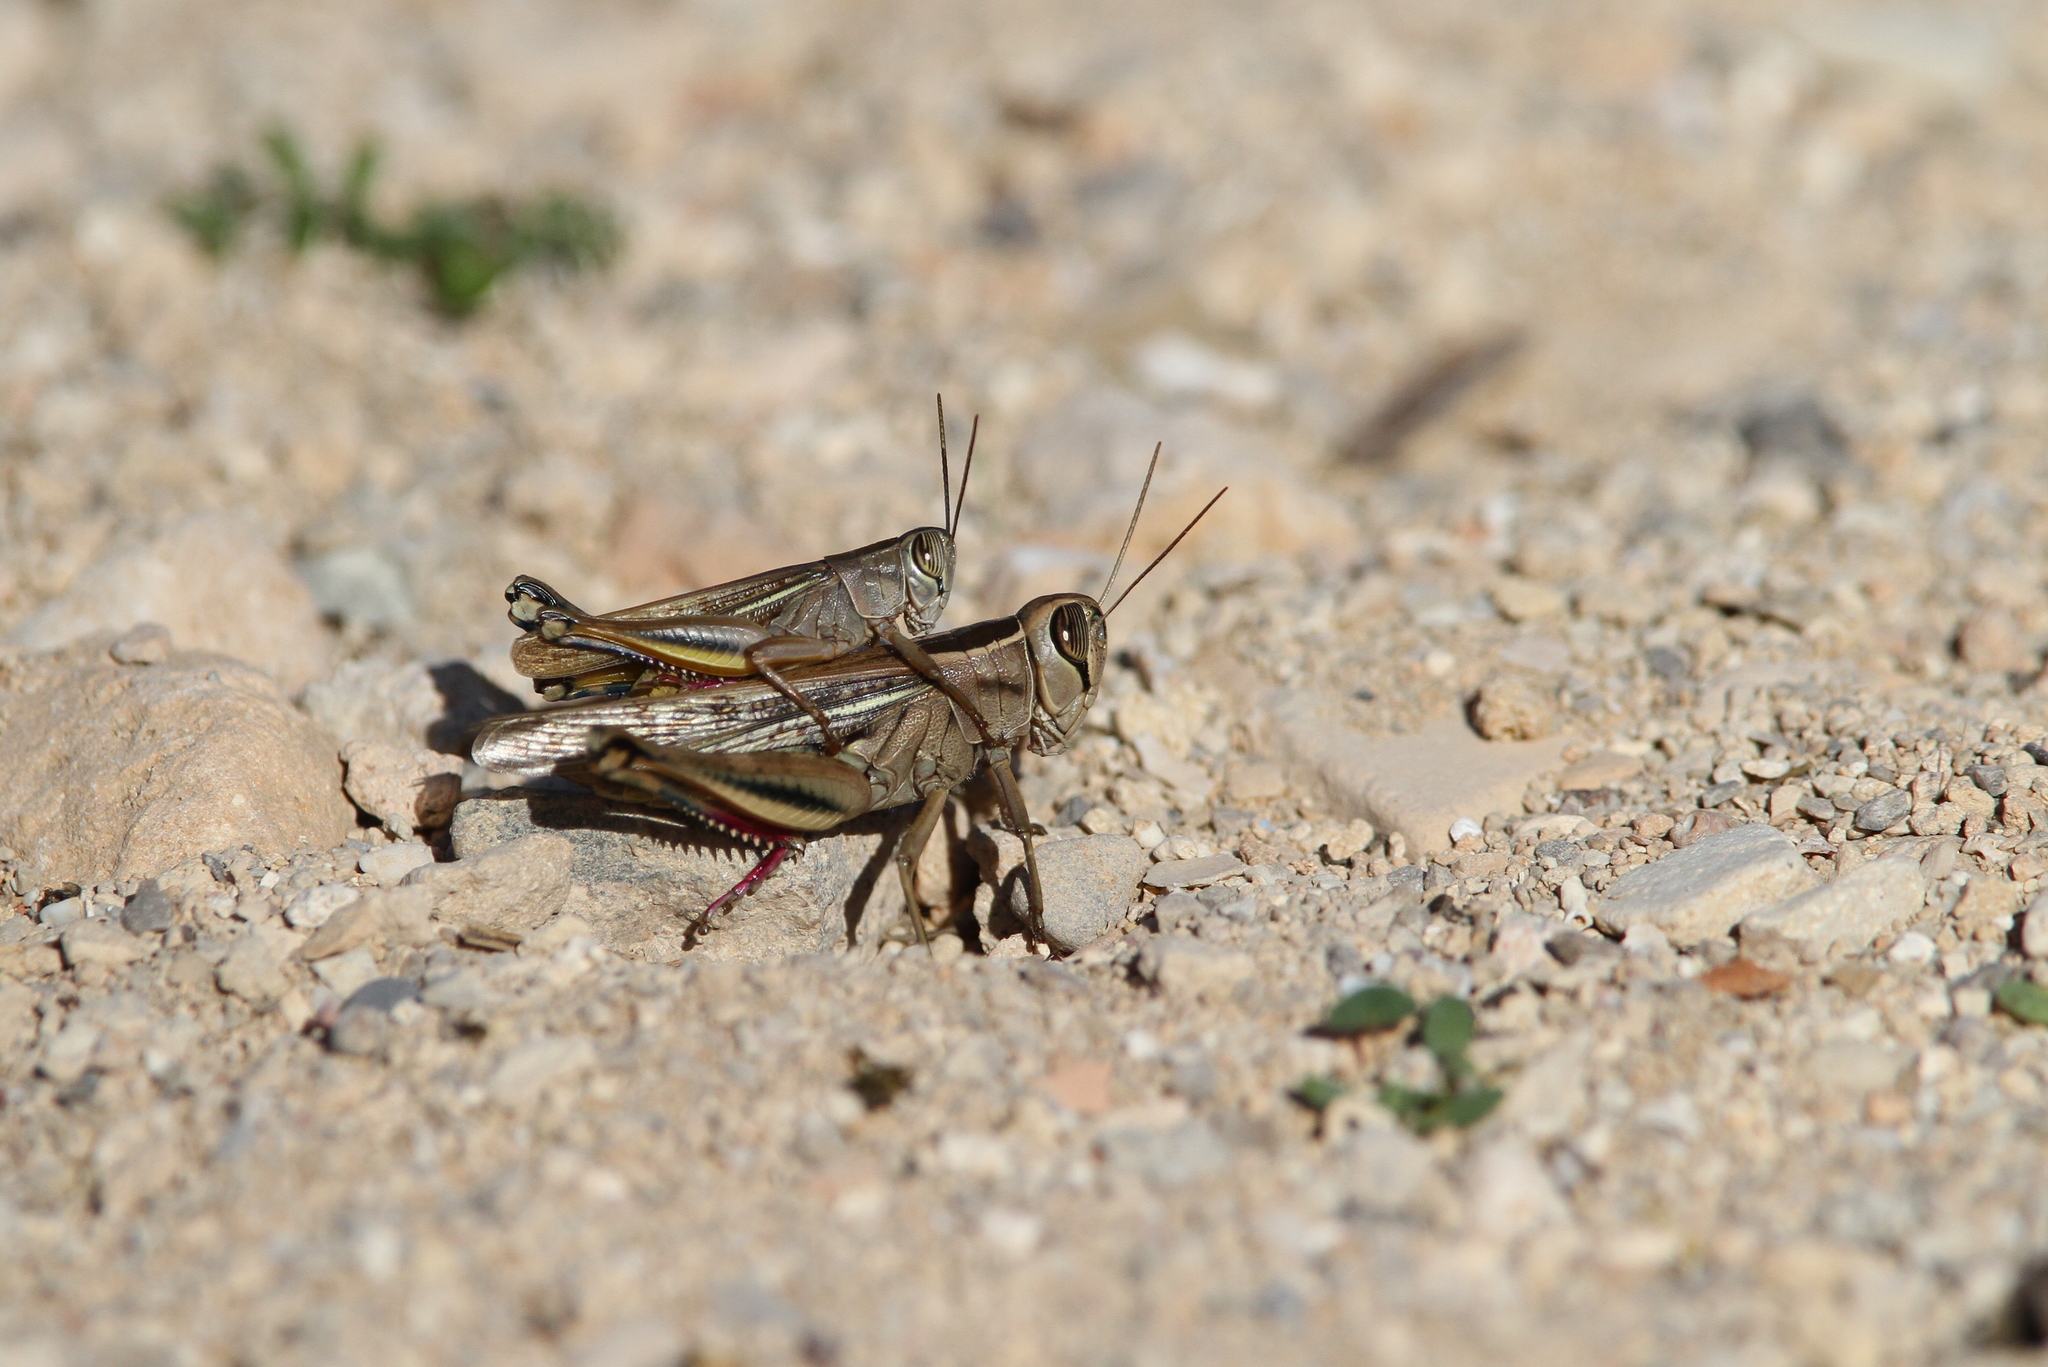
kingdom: Animalia
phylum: Arthropoda
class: Insecta
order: Orthoptera
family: Acrididae
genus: Eyprepocnemis
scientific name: Eyprepocnemis plorans
